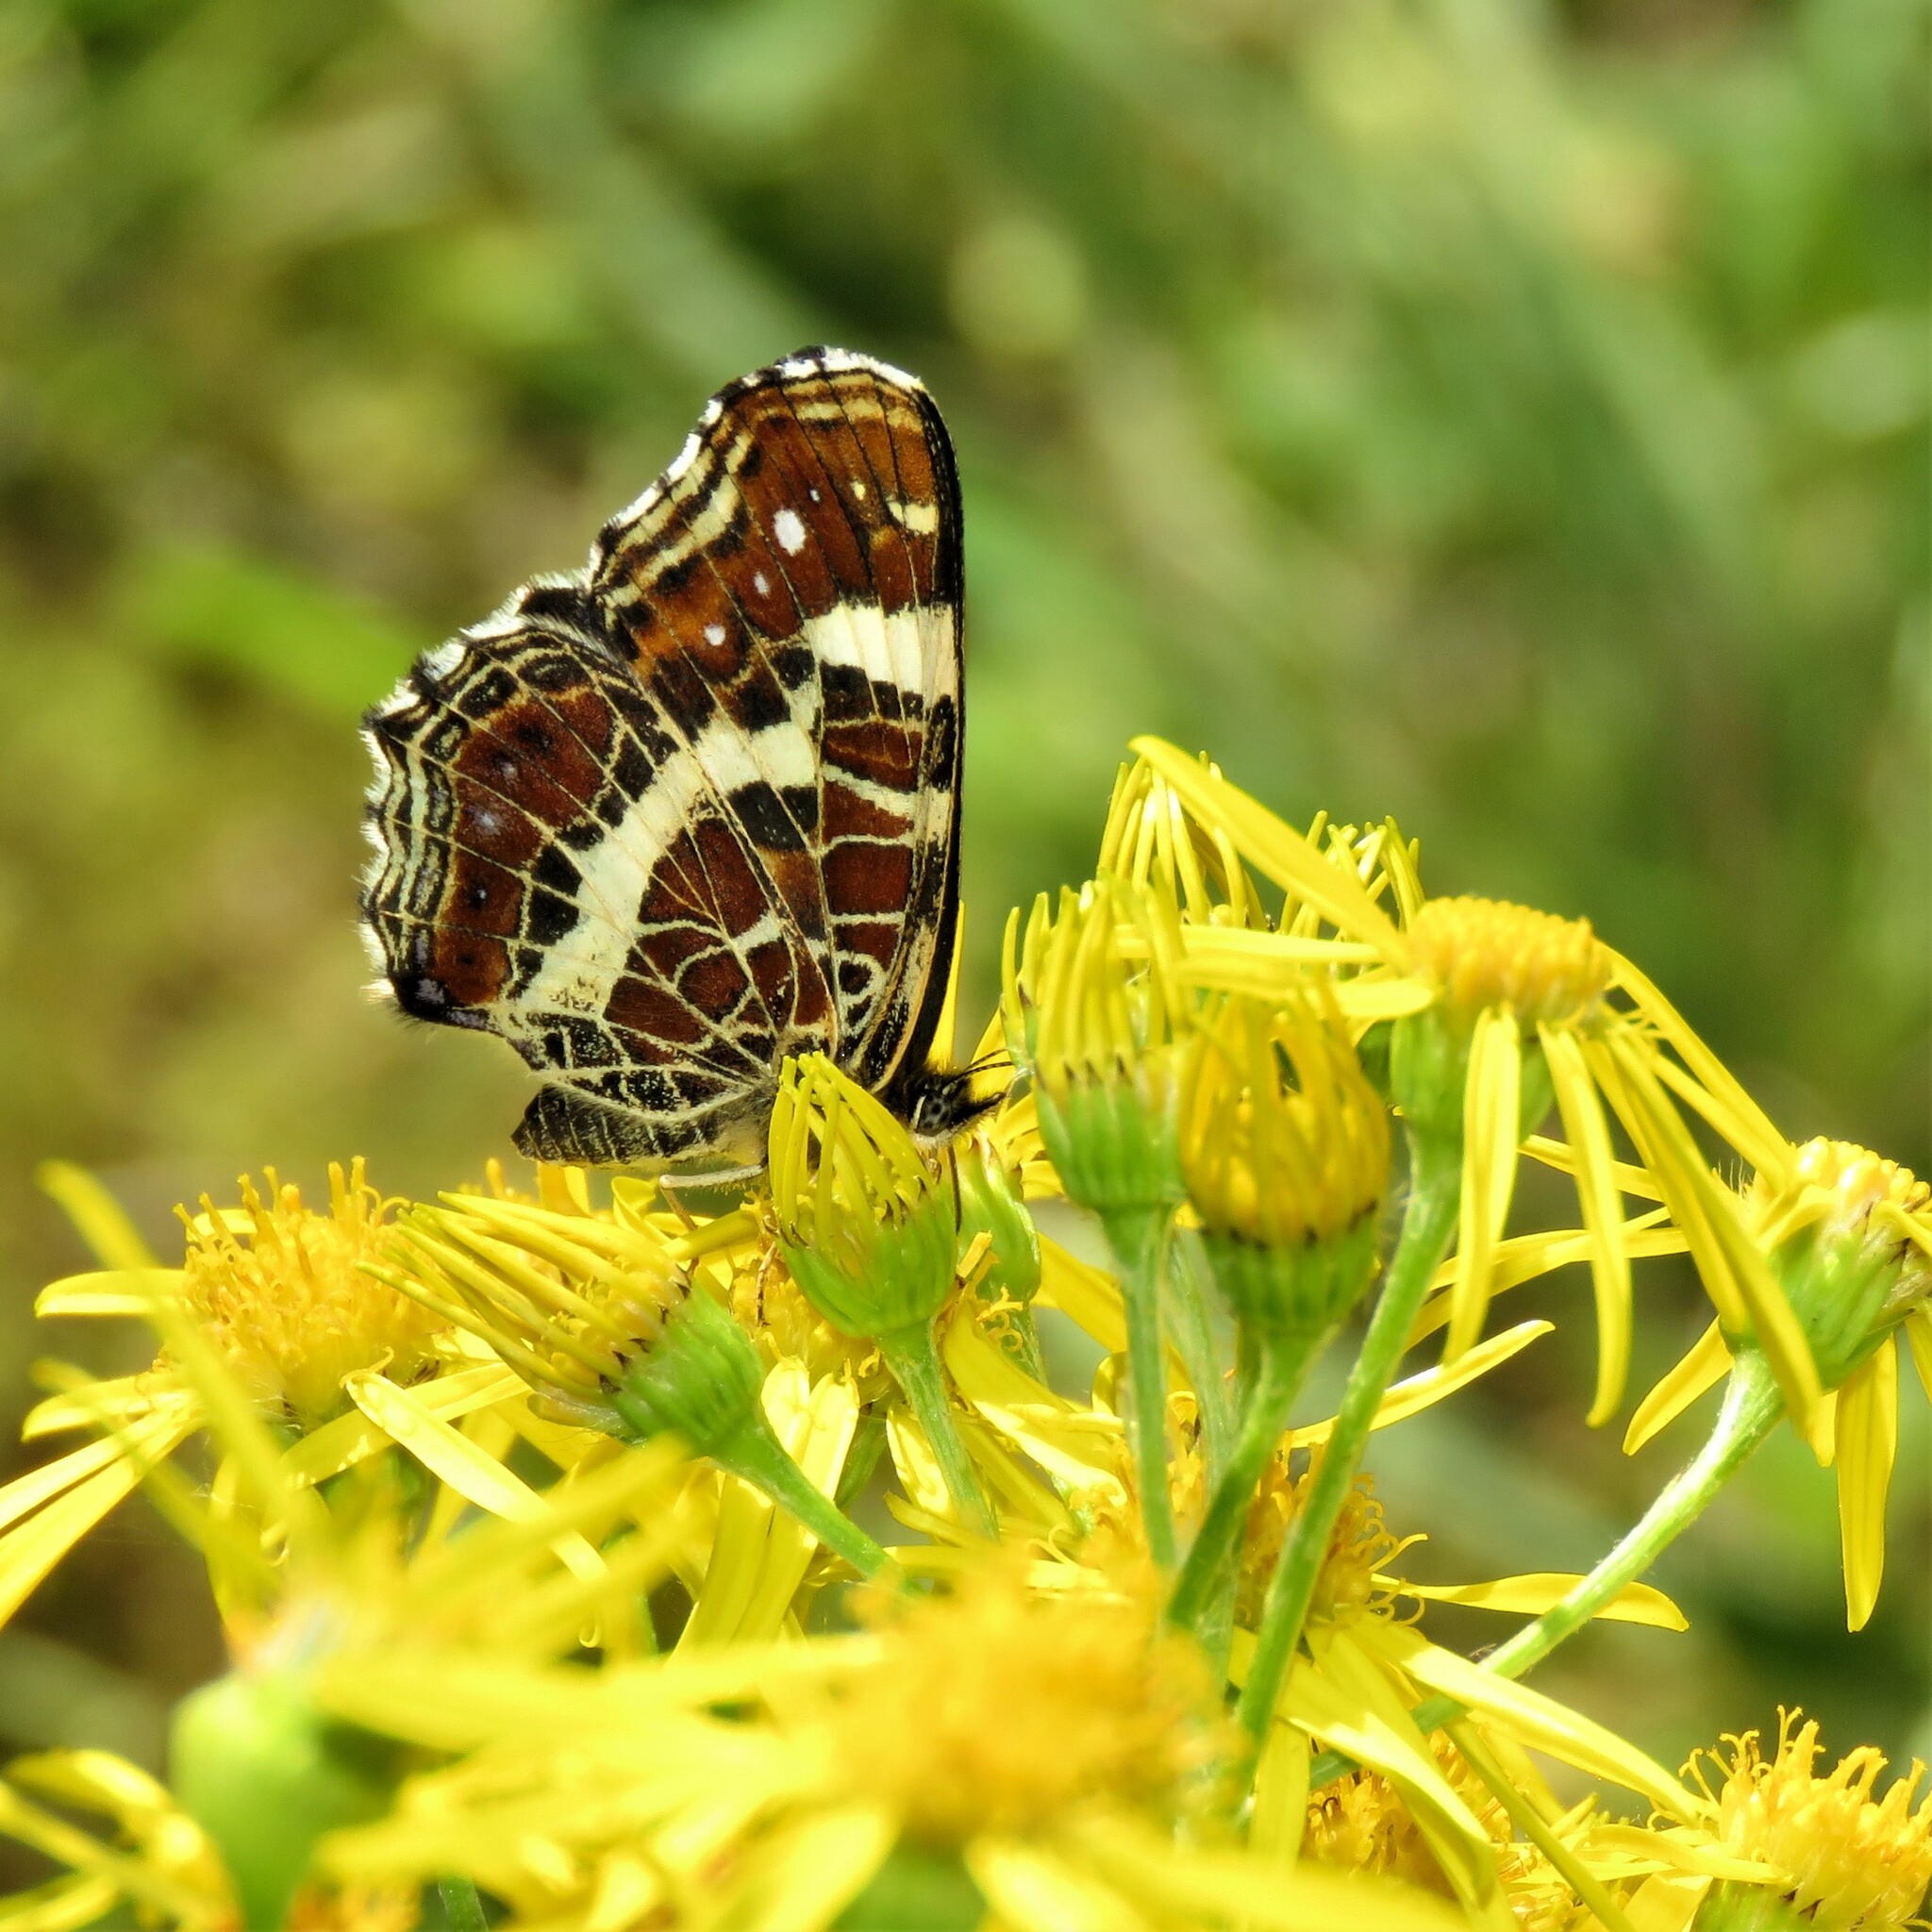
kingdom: Animalia
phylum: Arthropoda
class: Insecta
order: Lepidoptera
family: Nymphalidae
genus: Araschnia
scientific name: Araschnia levana
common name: Map butterfly
